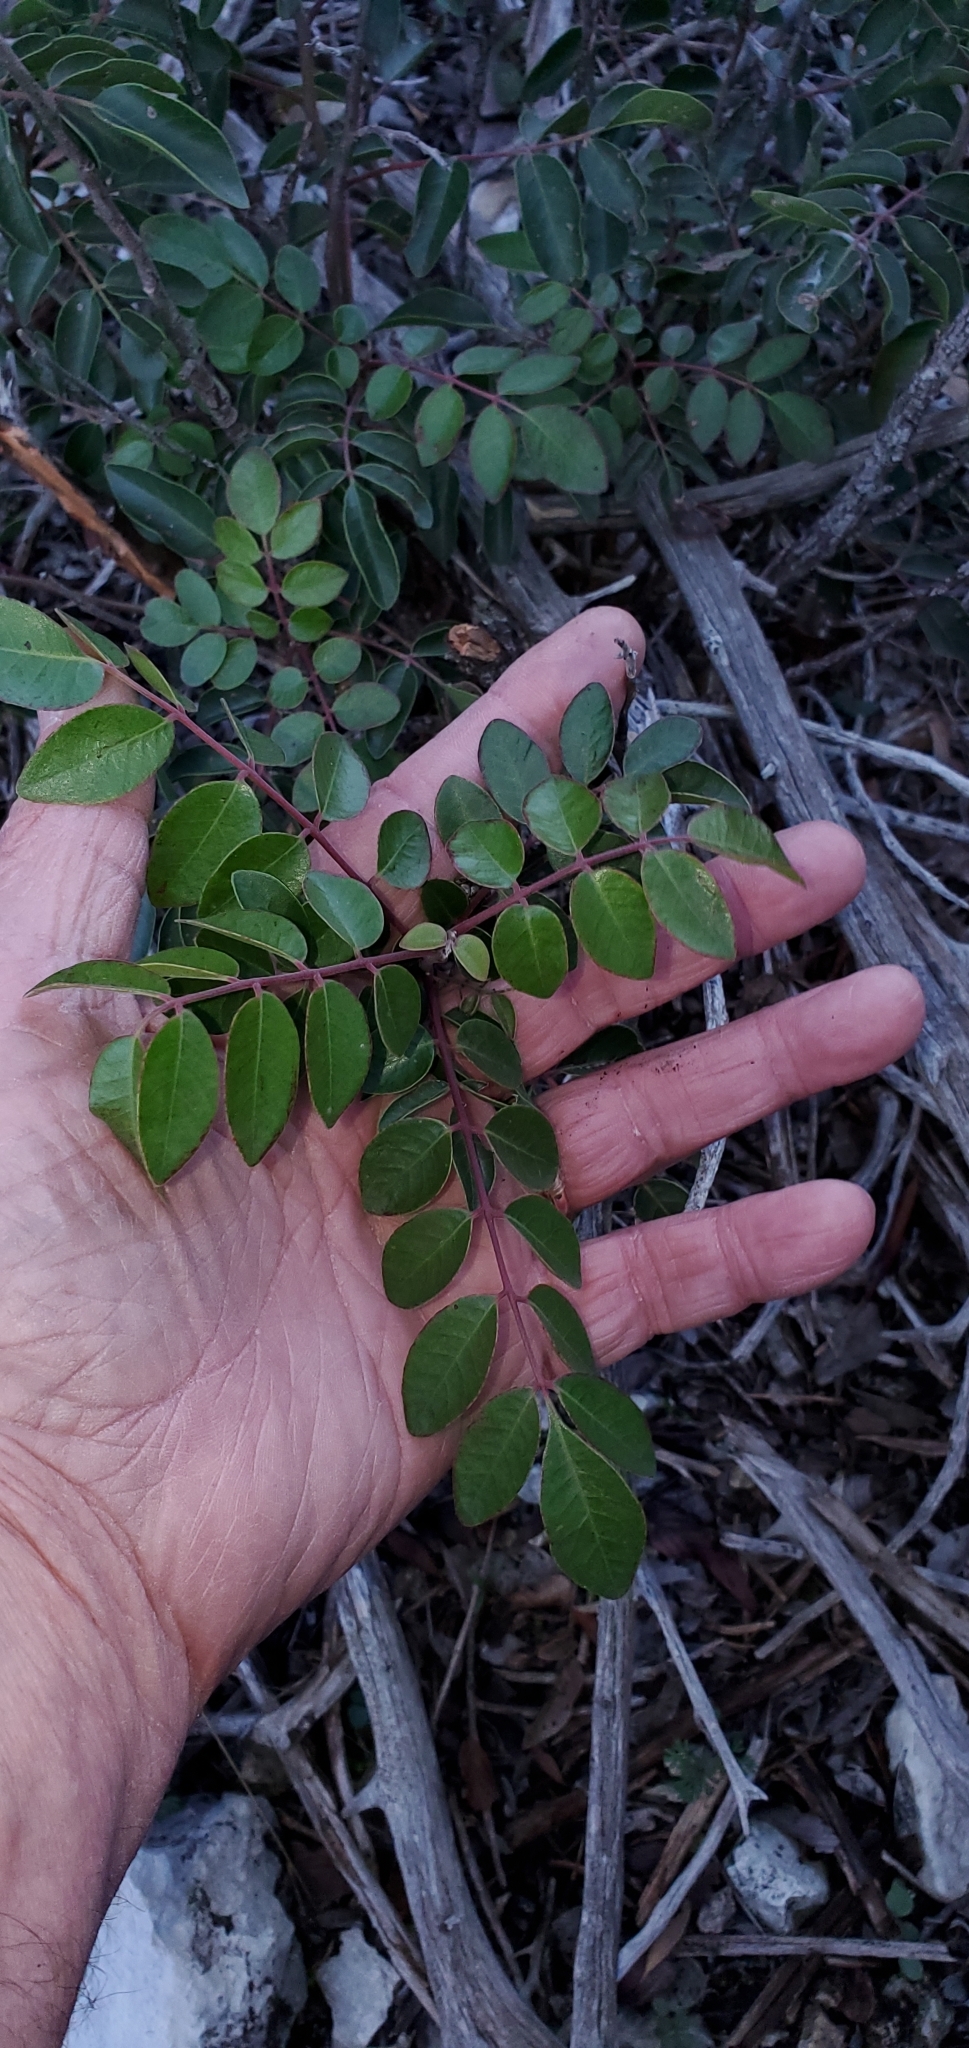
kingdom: Plantae
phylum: Tracheophyta
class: Magnoliopsida
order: Sapindales
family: Anacardiaceae
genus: Rhus
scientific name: Rhus virens
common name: Evergreen sumac
